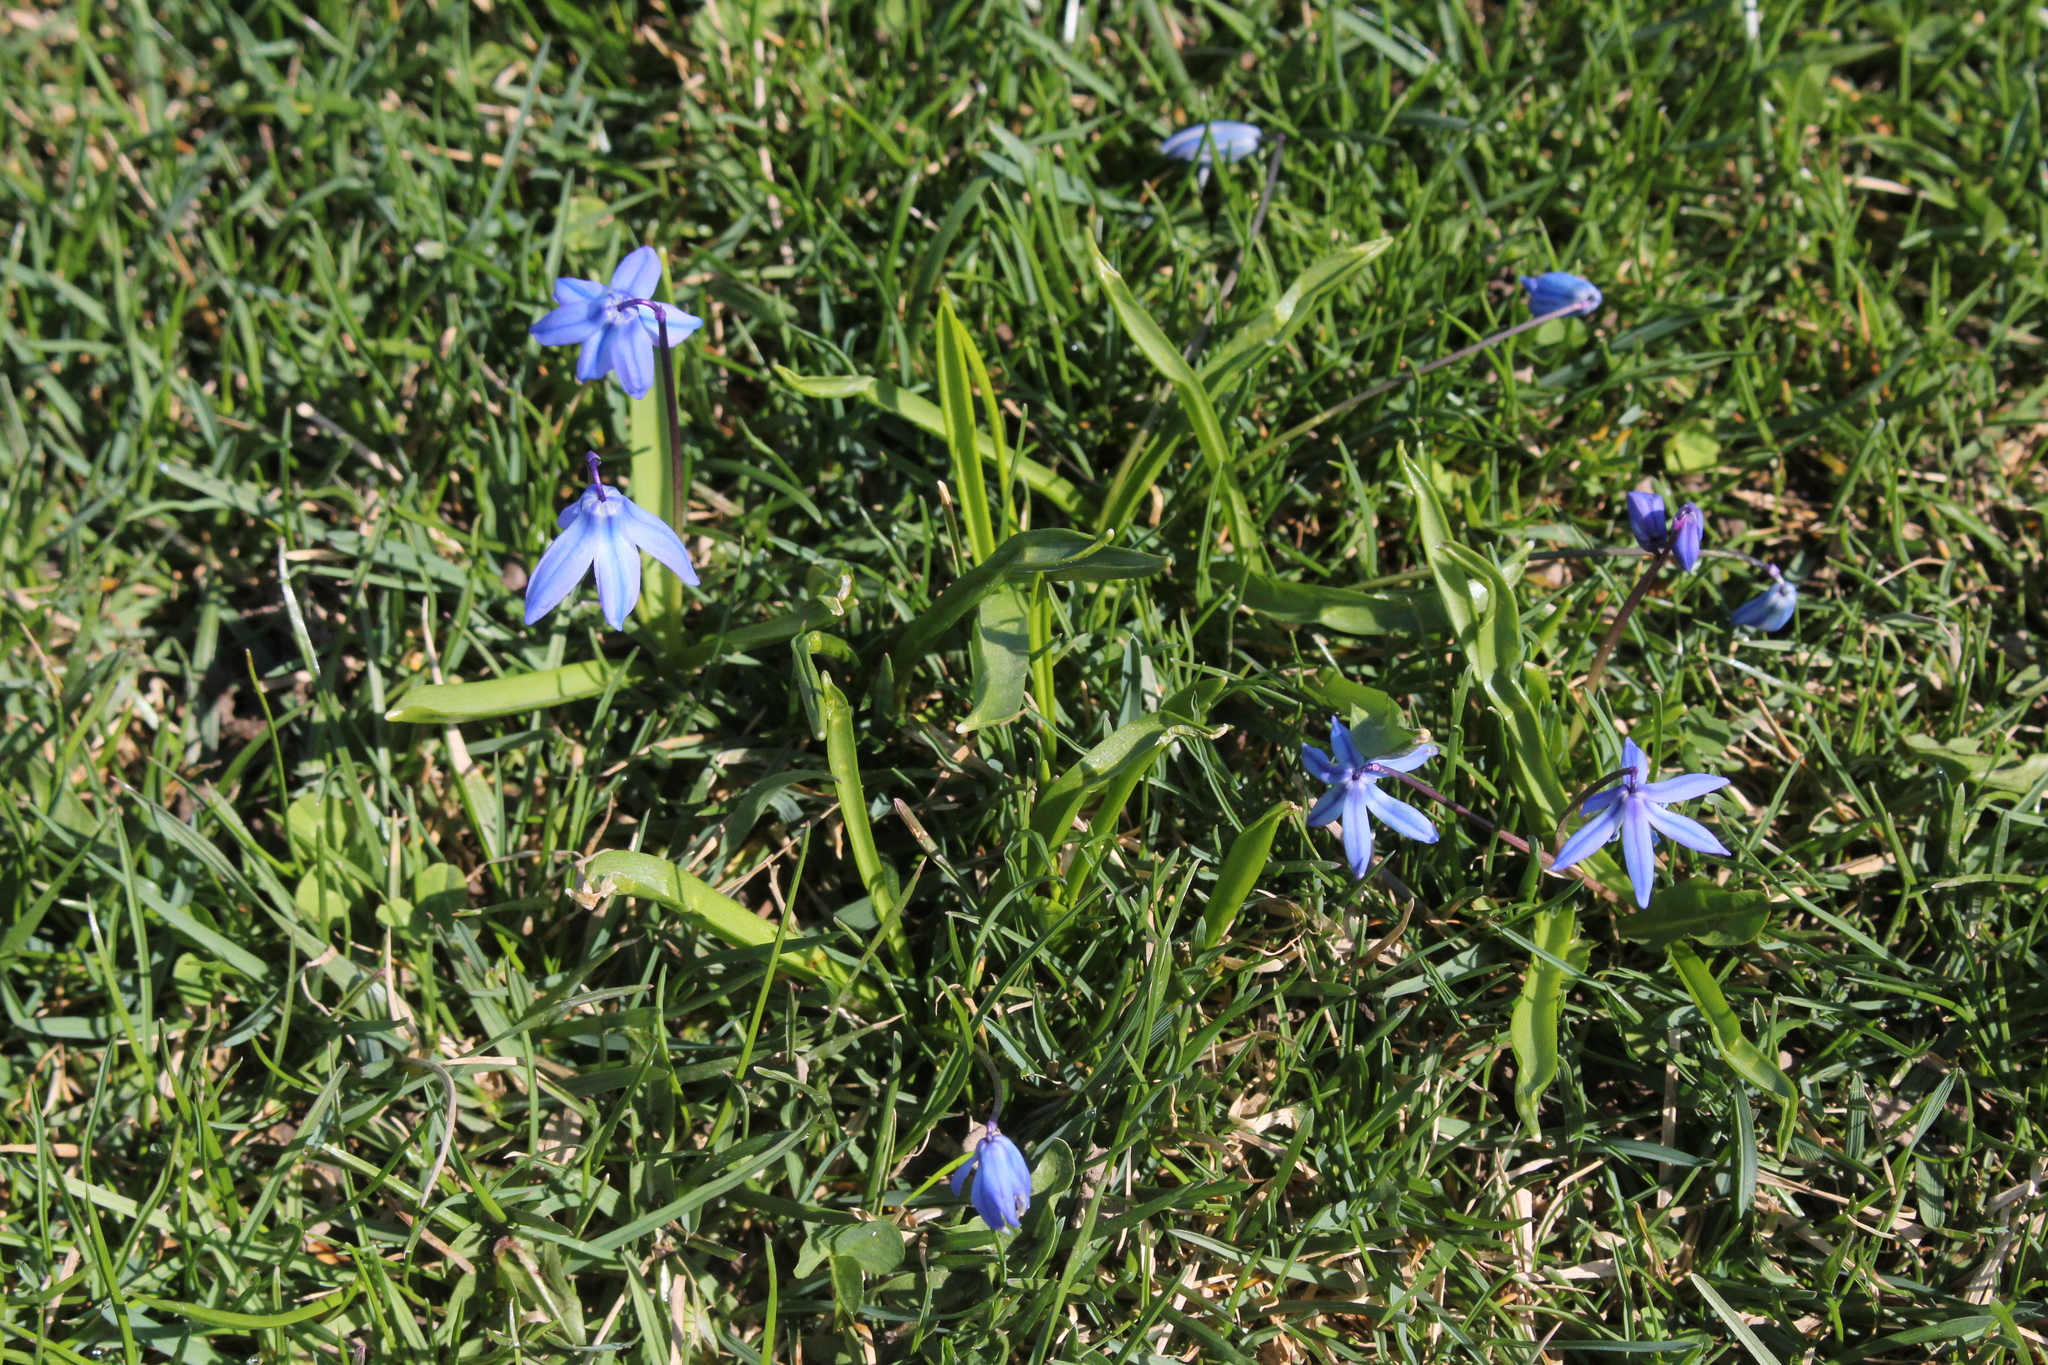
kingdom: Plantae
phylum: Tracheophyta
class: Liliopsida
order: Asparagales
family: Asparagaceae
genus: Scilla
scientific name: Scilla siberica
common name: Siberian squill
